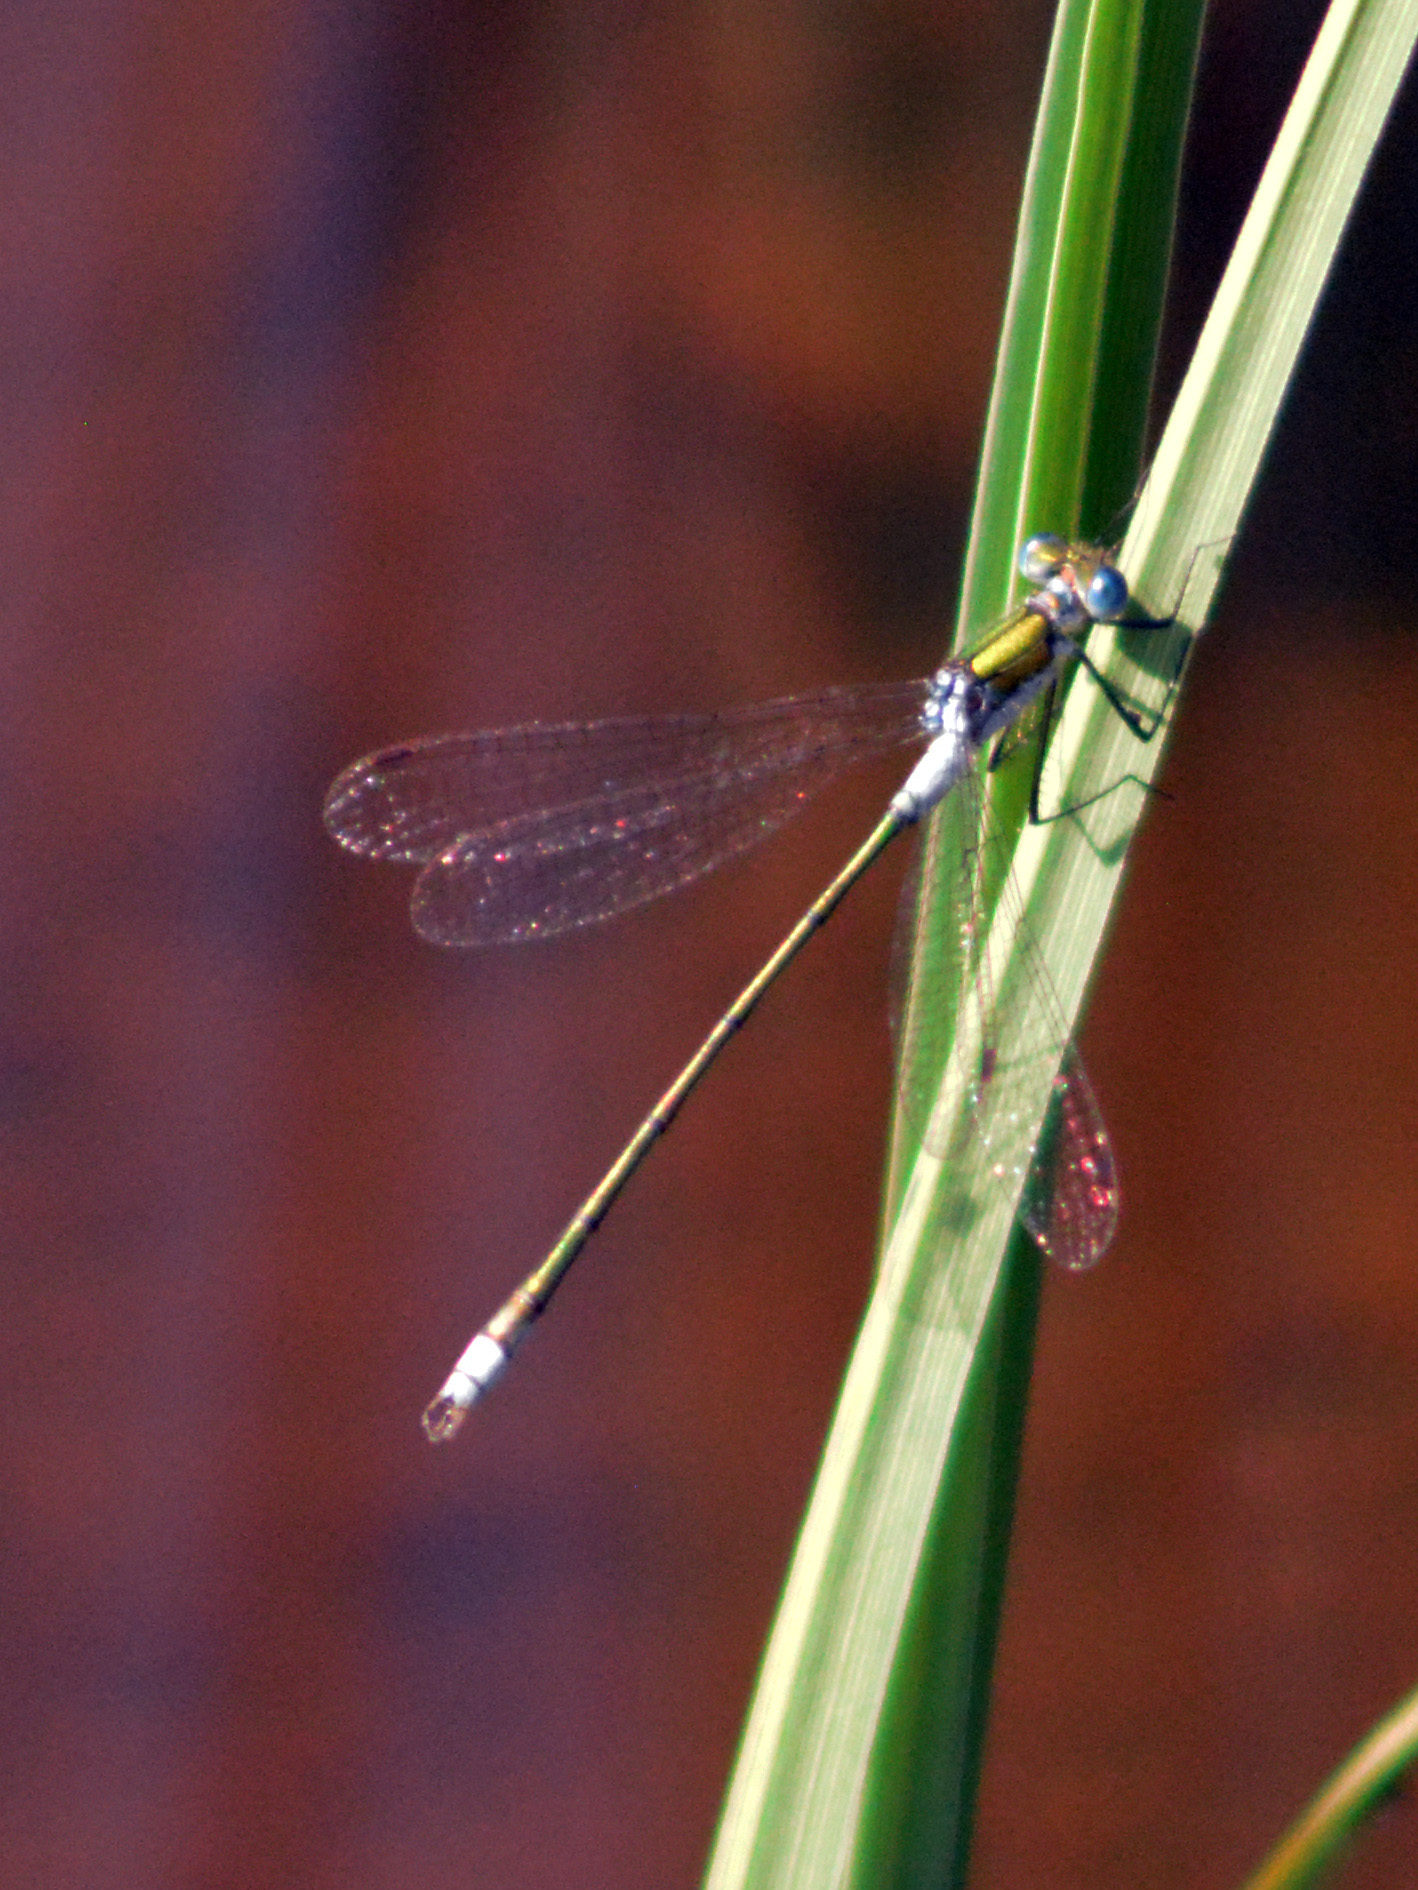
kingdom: Animalia
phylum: Arthropoda
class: Insecta
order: Odonata
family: Lestidae
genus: Lestes
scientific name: Lestes sponsa
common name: Common spreadwing
